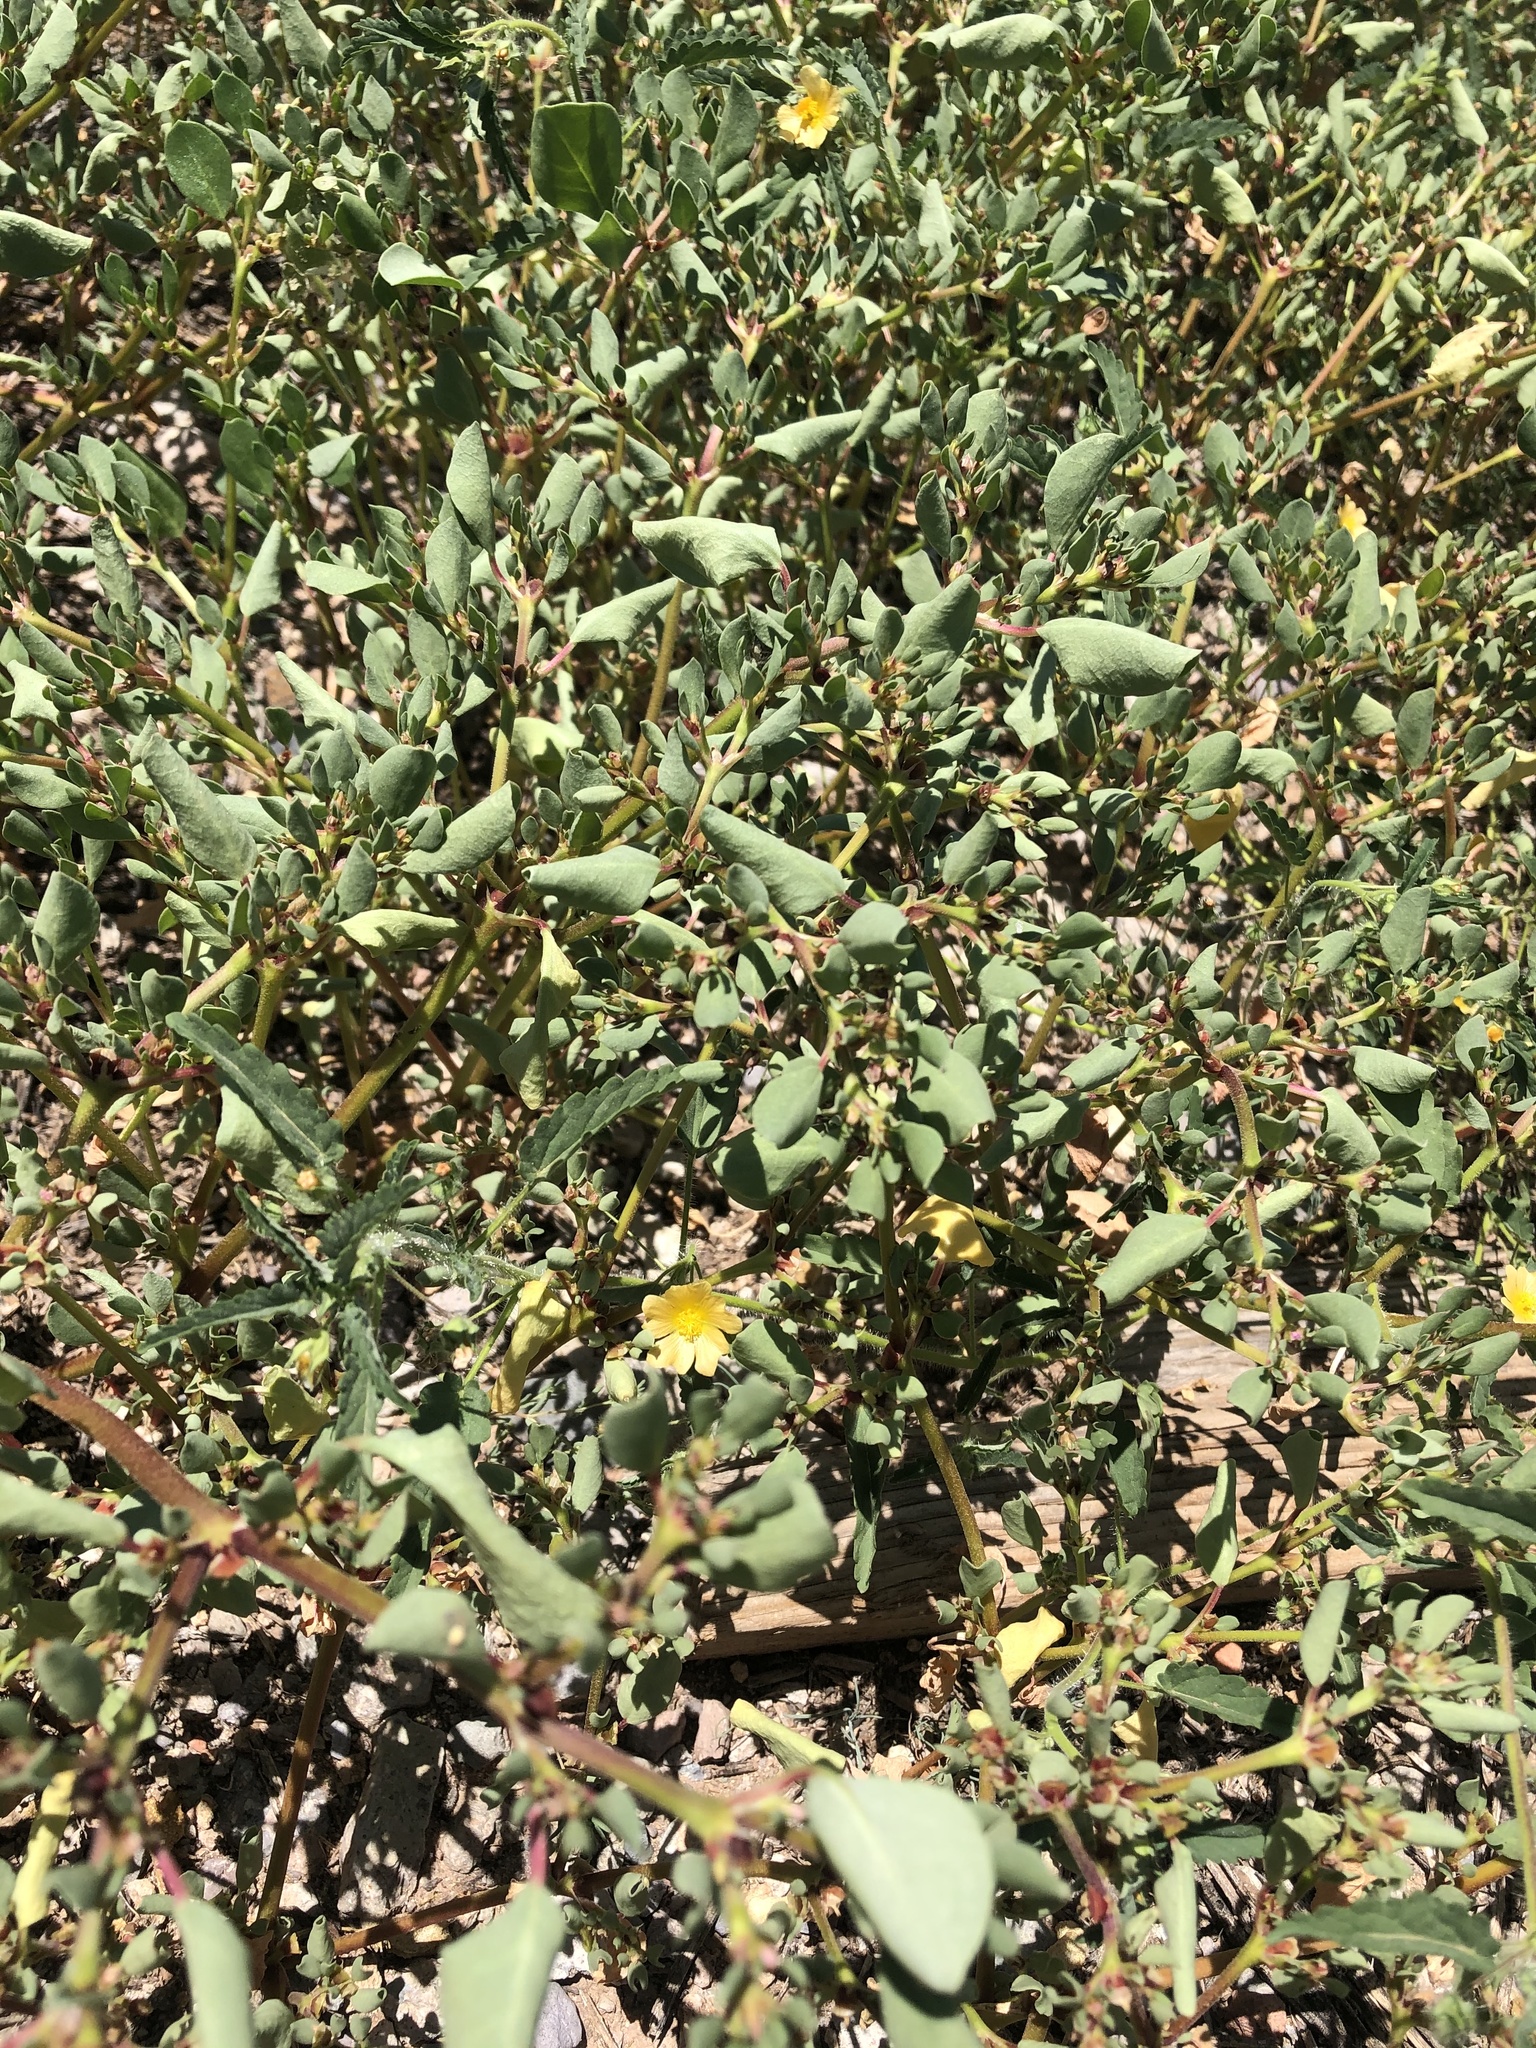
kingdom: Plantae
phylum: Tracheophyta
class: Magnoliopsida
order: Malvales
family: Malvaceae
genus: Sida
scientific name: Sida abutilifolia
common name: Spreading fanpetals
